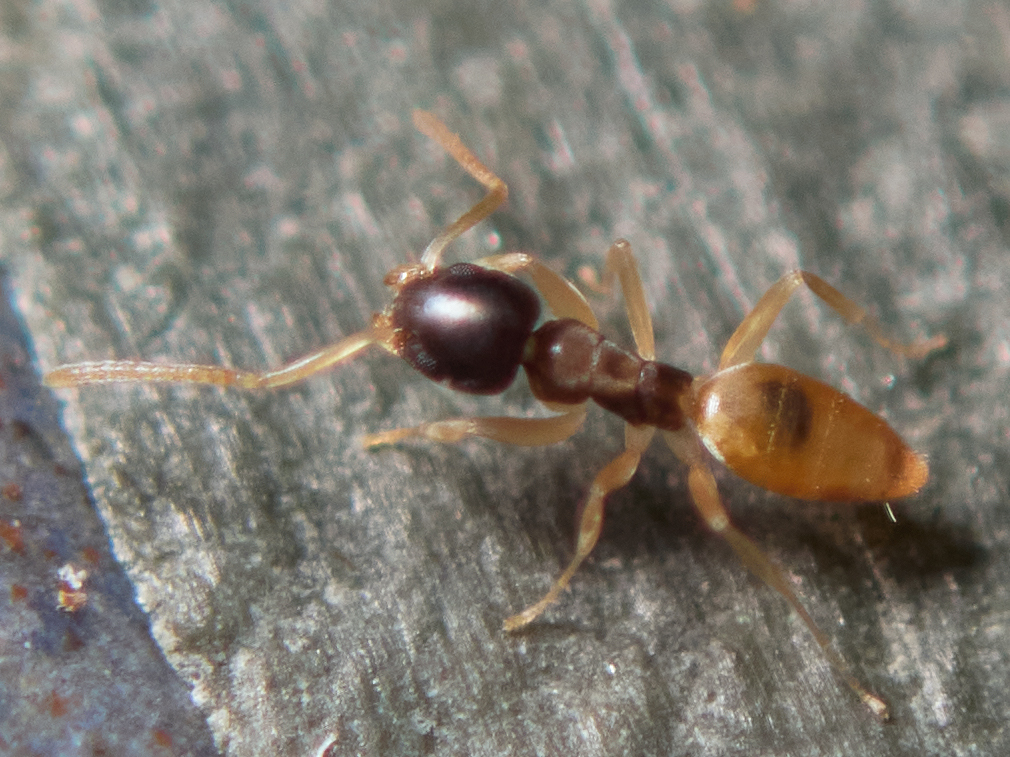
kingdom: Animalia
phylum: Arthropoda
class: Insecta
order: Hymenoptera
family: Formicidae
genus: Tapinoma
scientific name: Tapinoma melanocephalum
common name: Ghost ant
